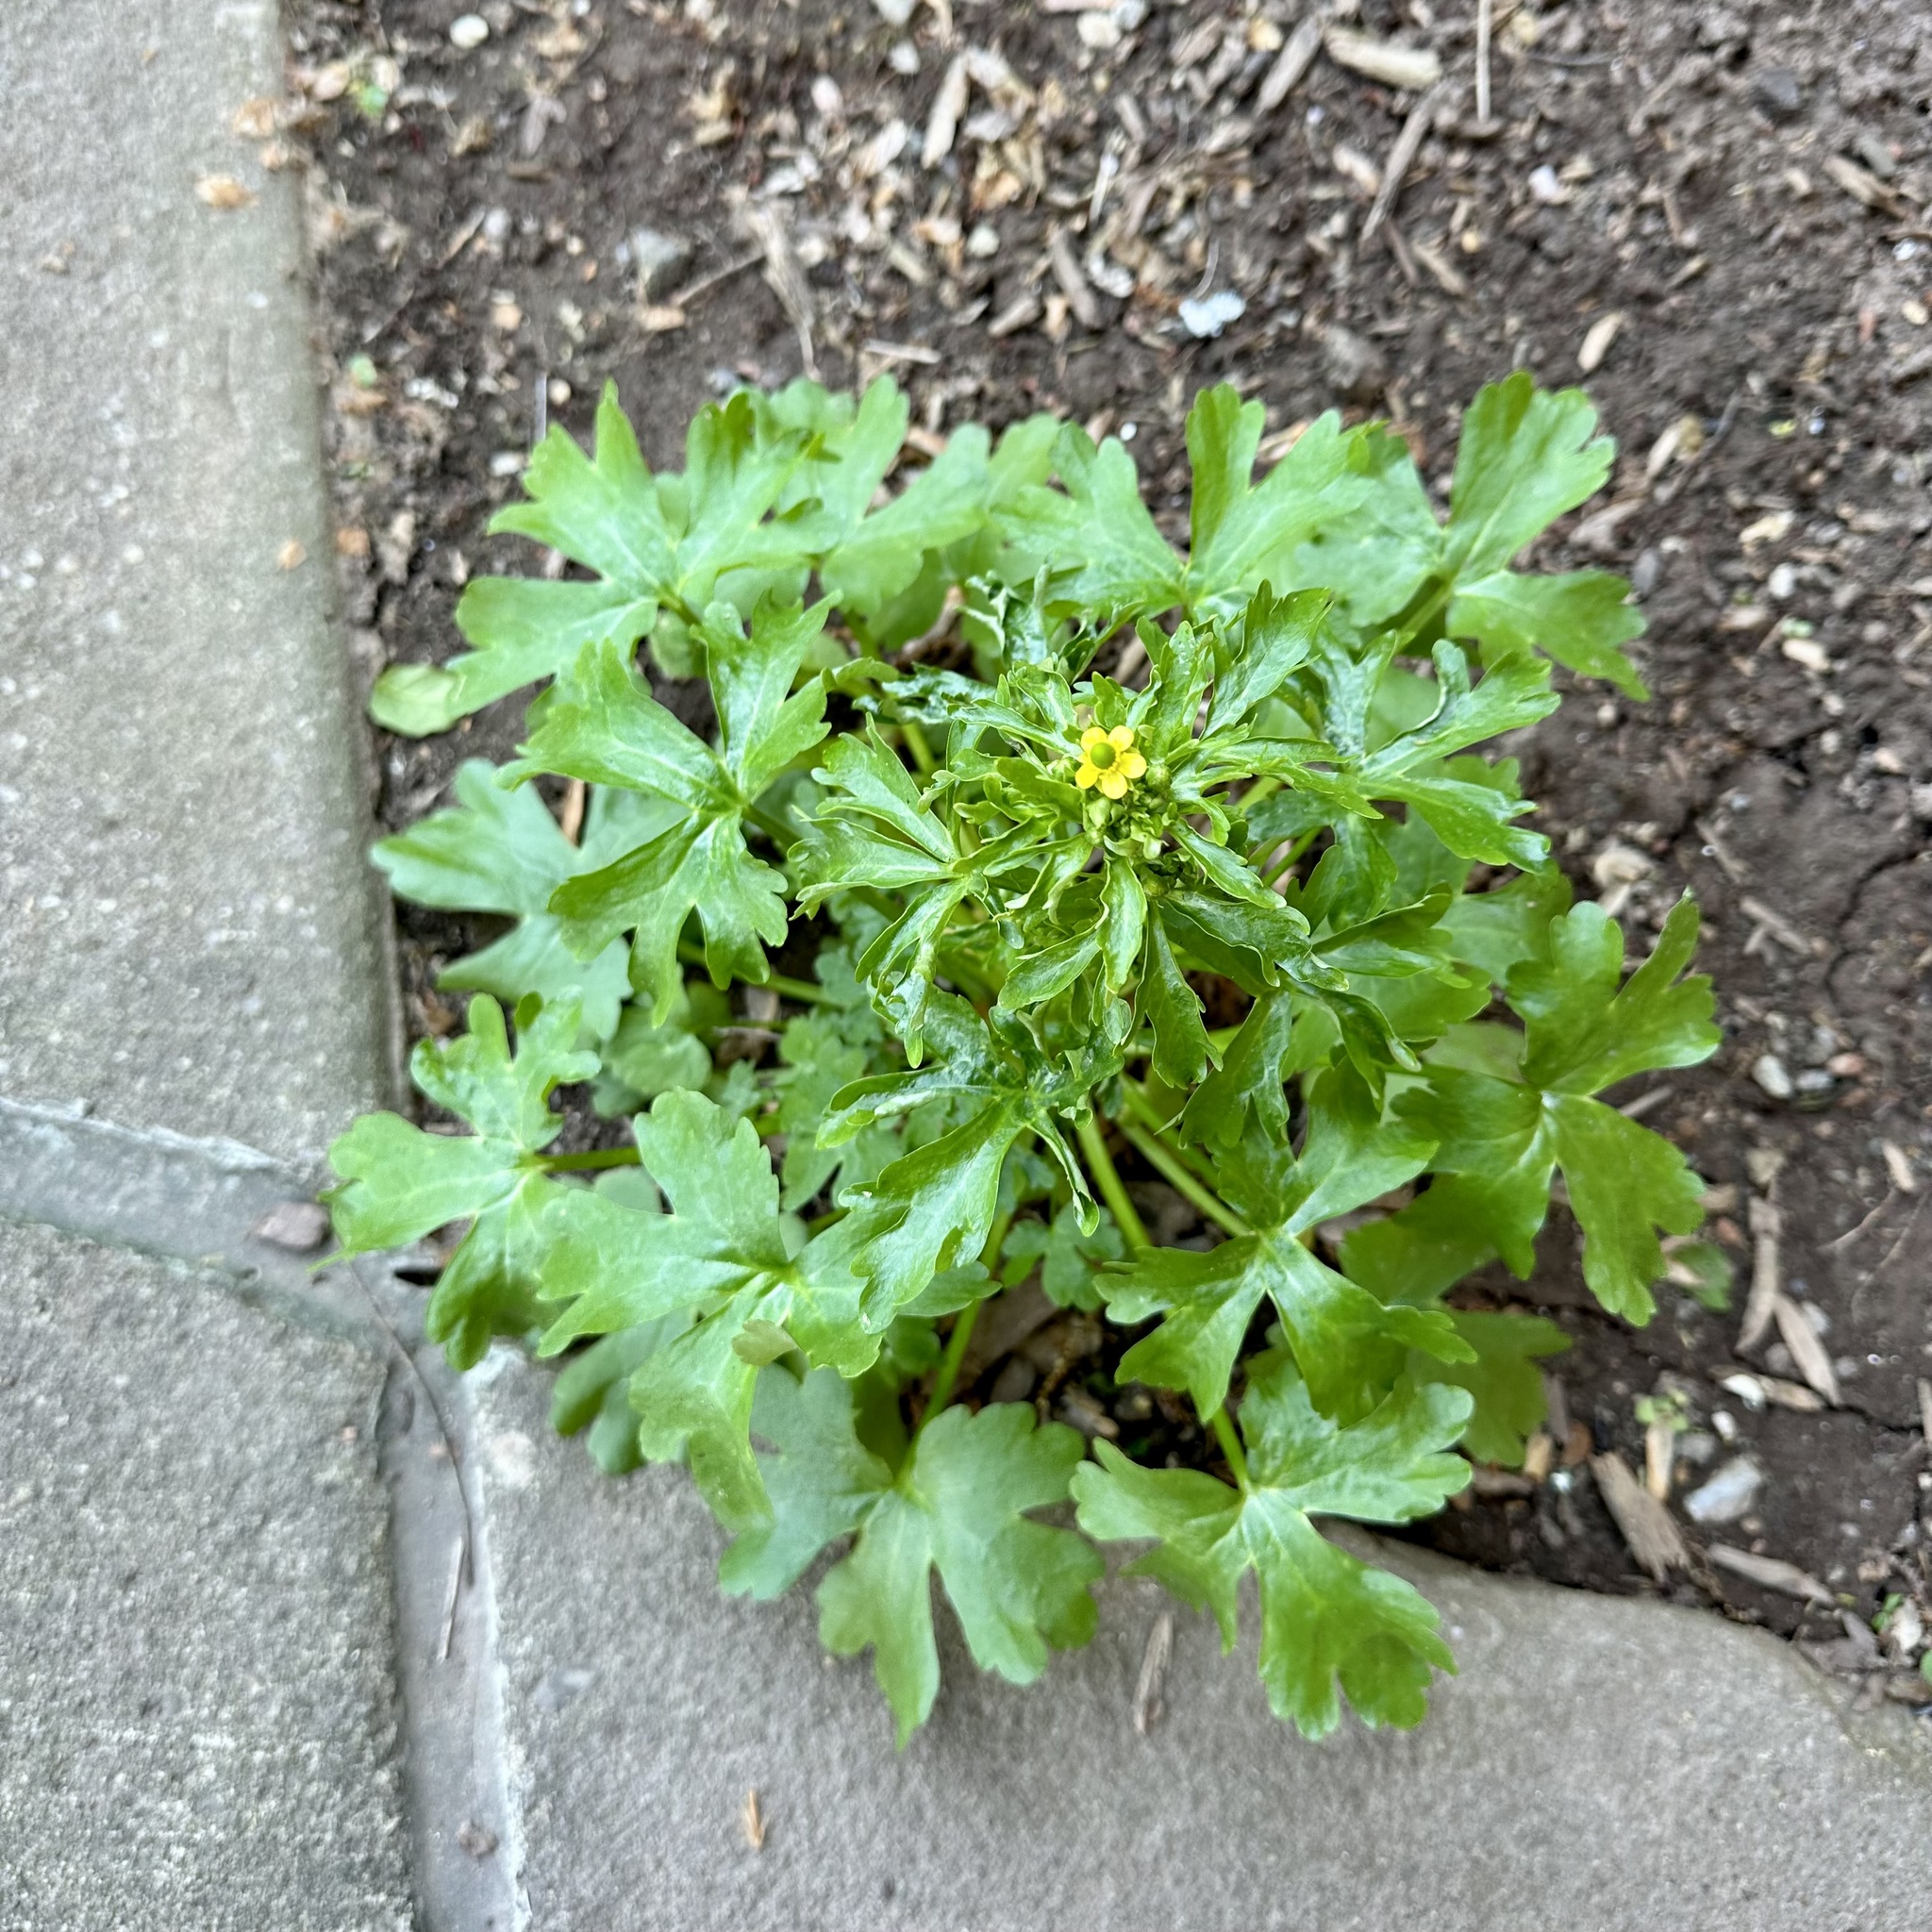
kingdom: Plantae
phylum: Tracheophyta
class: Magnoliopsida
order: Ranunculales
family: Ranunculaceae
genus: Ranunculus
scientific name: Ranunculus sceleratus
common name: Celery-leaved buttercup
